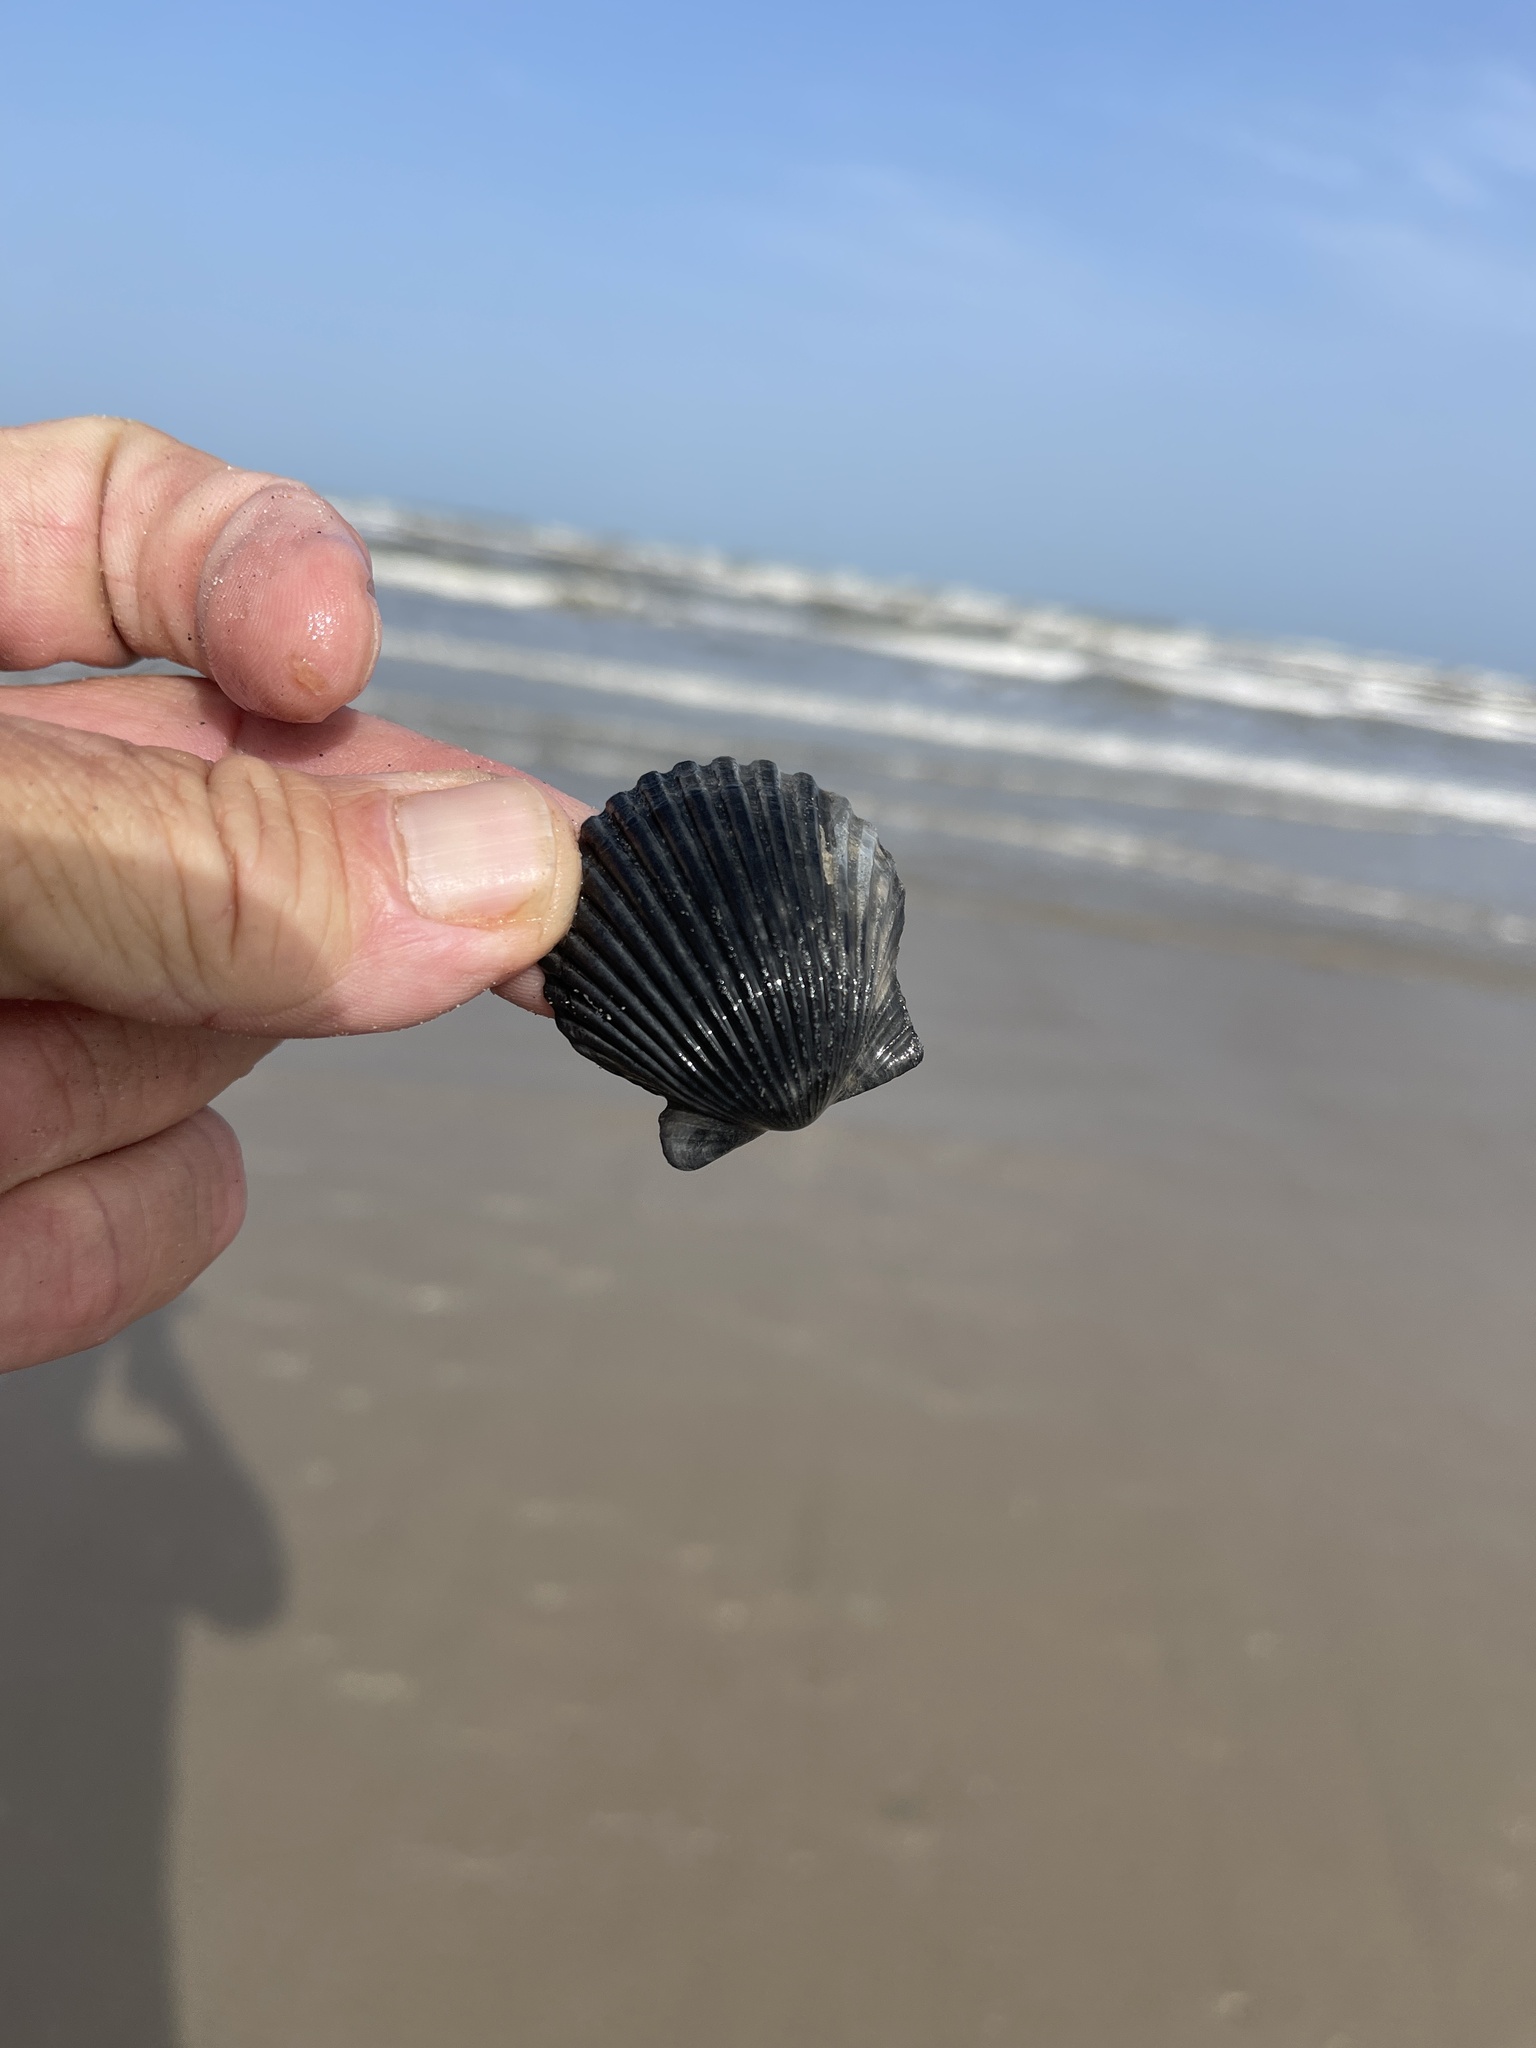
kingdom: Animalia
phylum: Mollusca
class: Bivalvia
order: Pectinida
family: Pectinidae
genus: Argopecten
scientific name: Argopecten irradians
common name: Atlantic bay scallop
